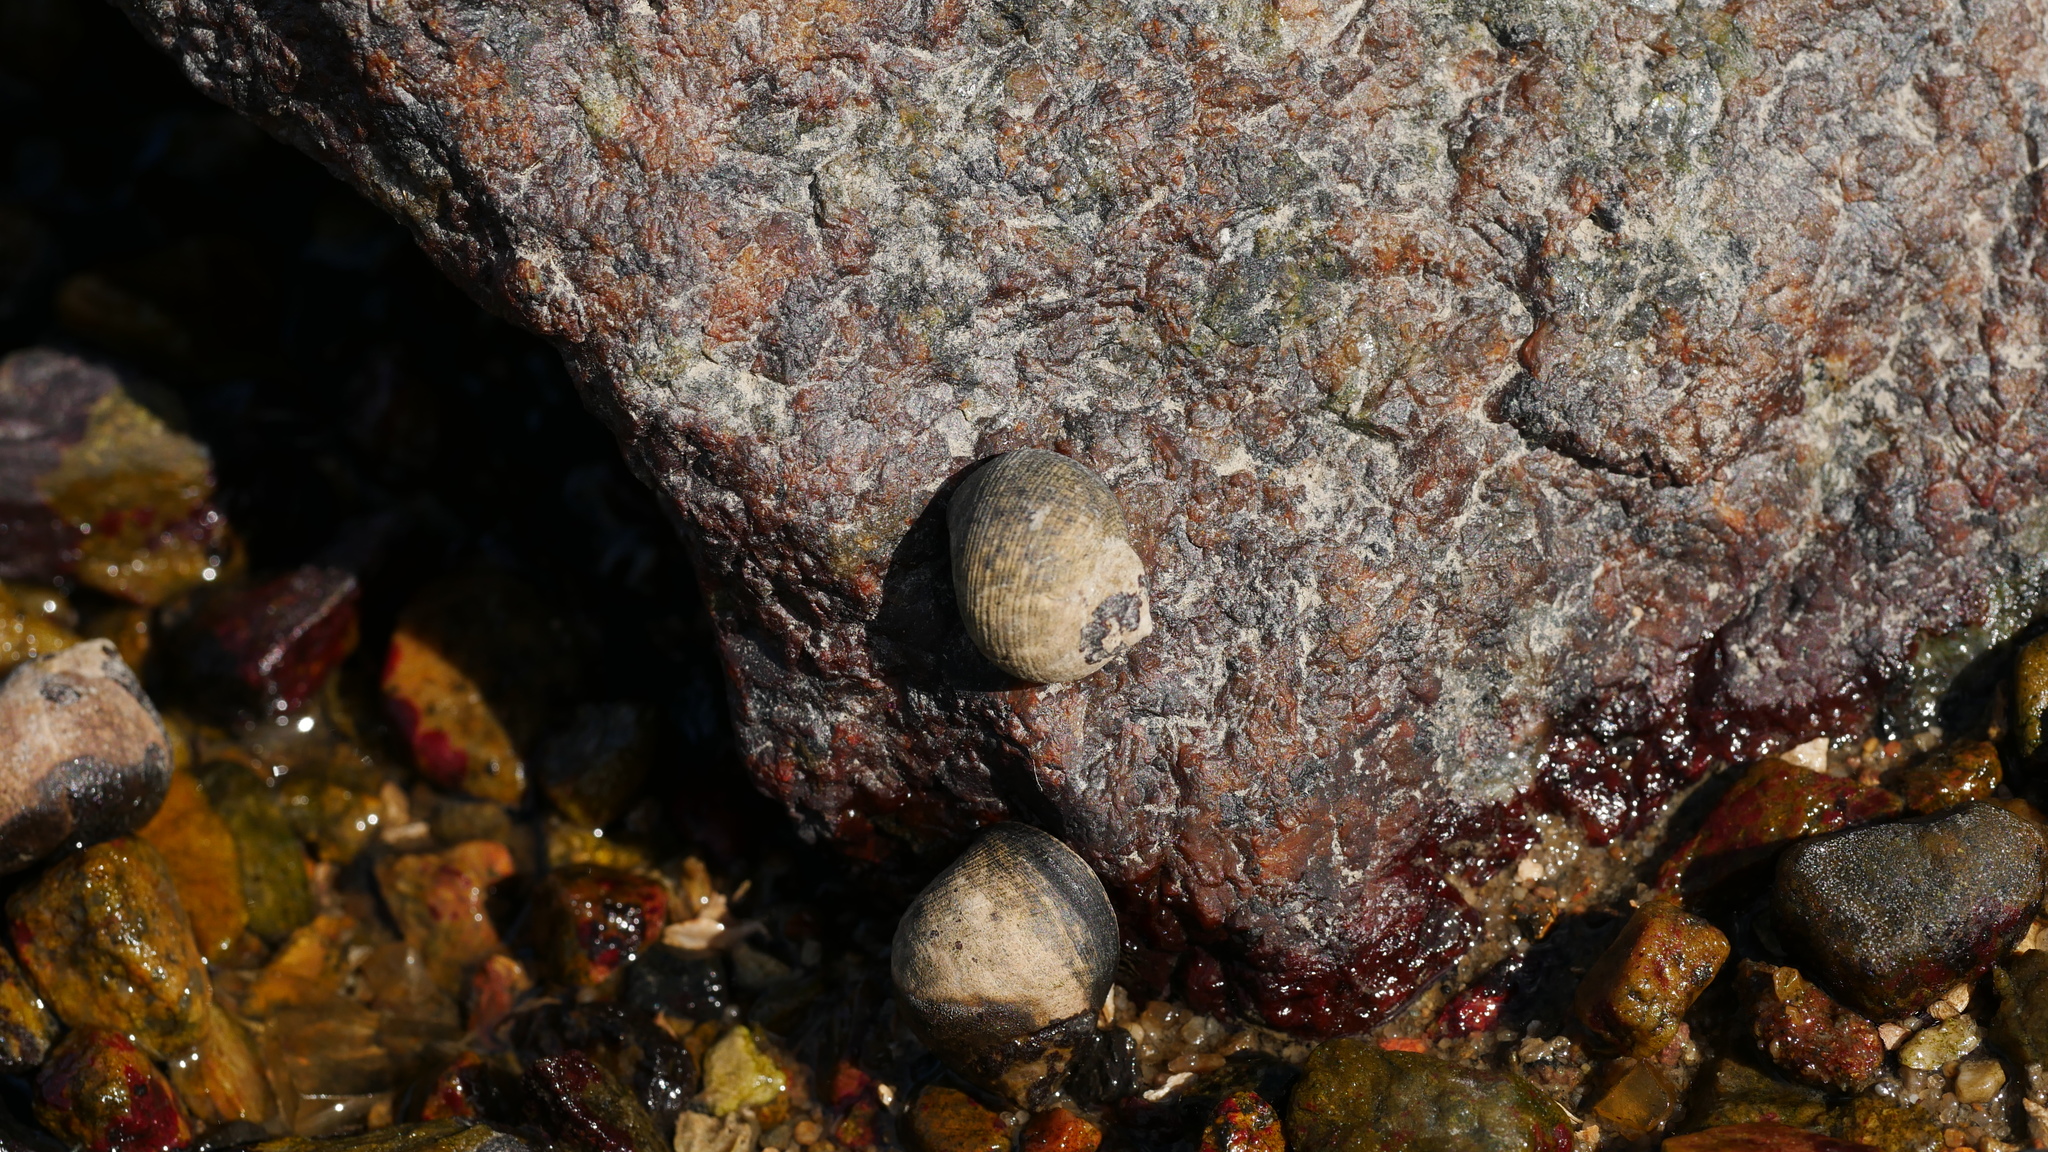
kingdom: Animalia
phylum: Mollusca
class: Gastropoda
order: Littorinimorpha
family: Littorinidae
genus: Littorina
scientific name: Littorina littorea
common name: Common periwinkle
